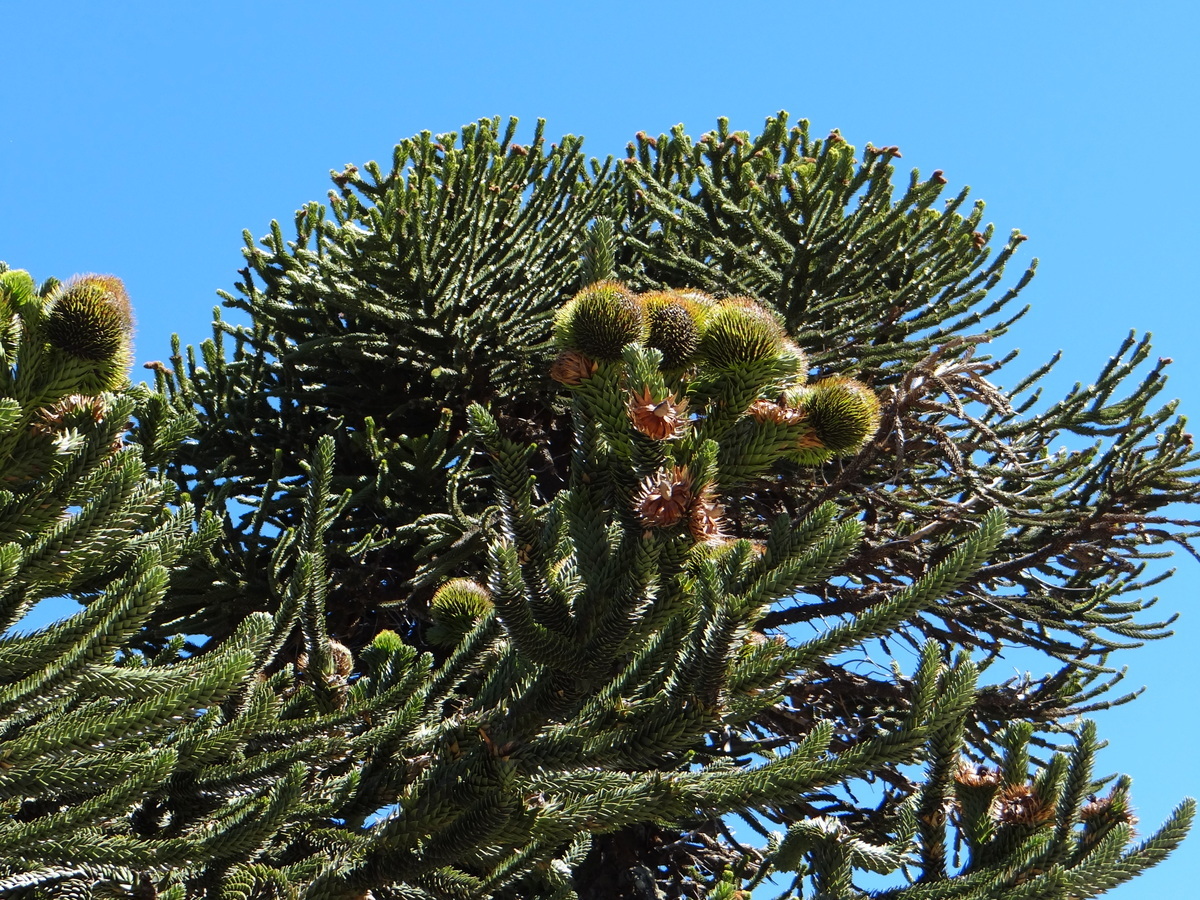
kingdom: Plantae
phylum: Tracheophyta
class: Pinopsida
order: Pinales
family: Araucariaceae
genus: Araucaria
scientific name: Araucaria araucana
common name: Monkey-puzzle
